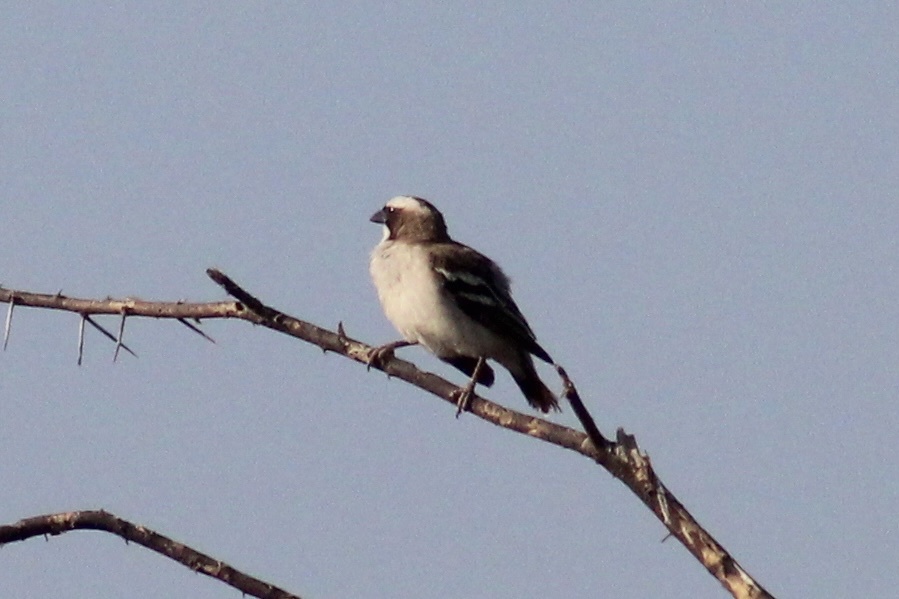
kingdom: Animalia
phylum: Chordata
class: Aves
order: Passeriformes
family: Passeridae
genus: Plocepasser
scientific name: Plocepasser mahali
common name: White-browed sparrow-weaver
